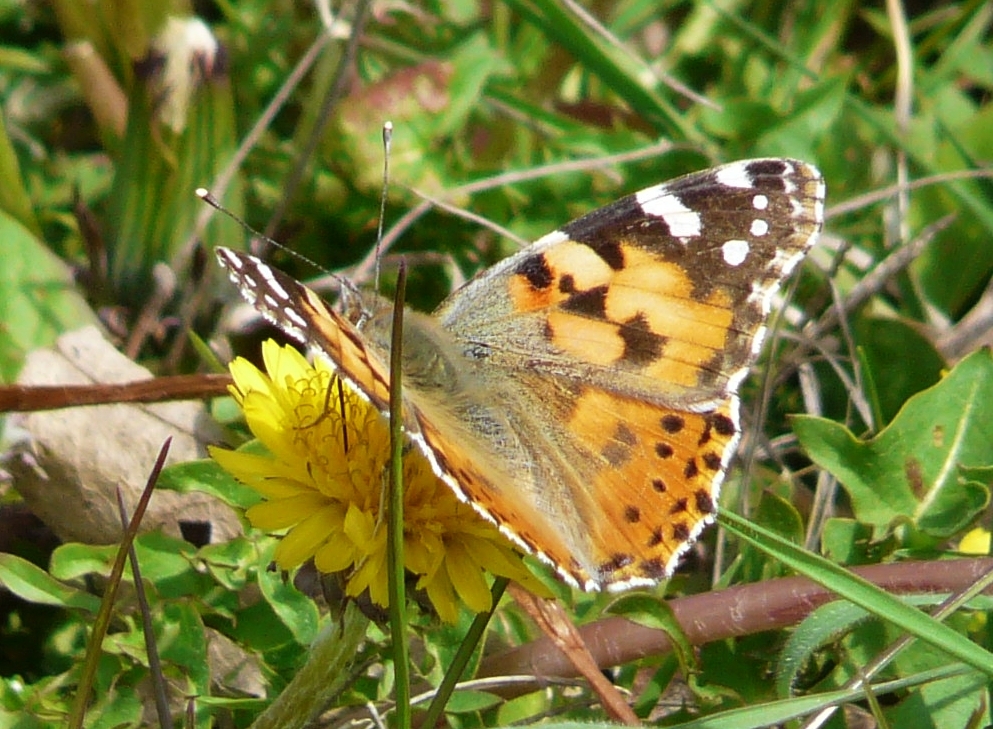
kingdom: Animalia
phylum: Arthropoda
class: Insecta
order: Lepidoptera
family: Nymphalidae
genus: Vanessa
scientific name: Vanessa cardui
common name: Painted lady
